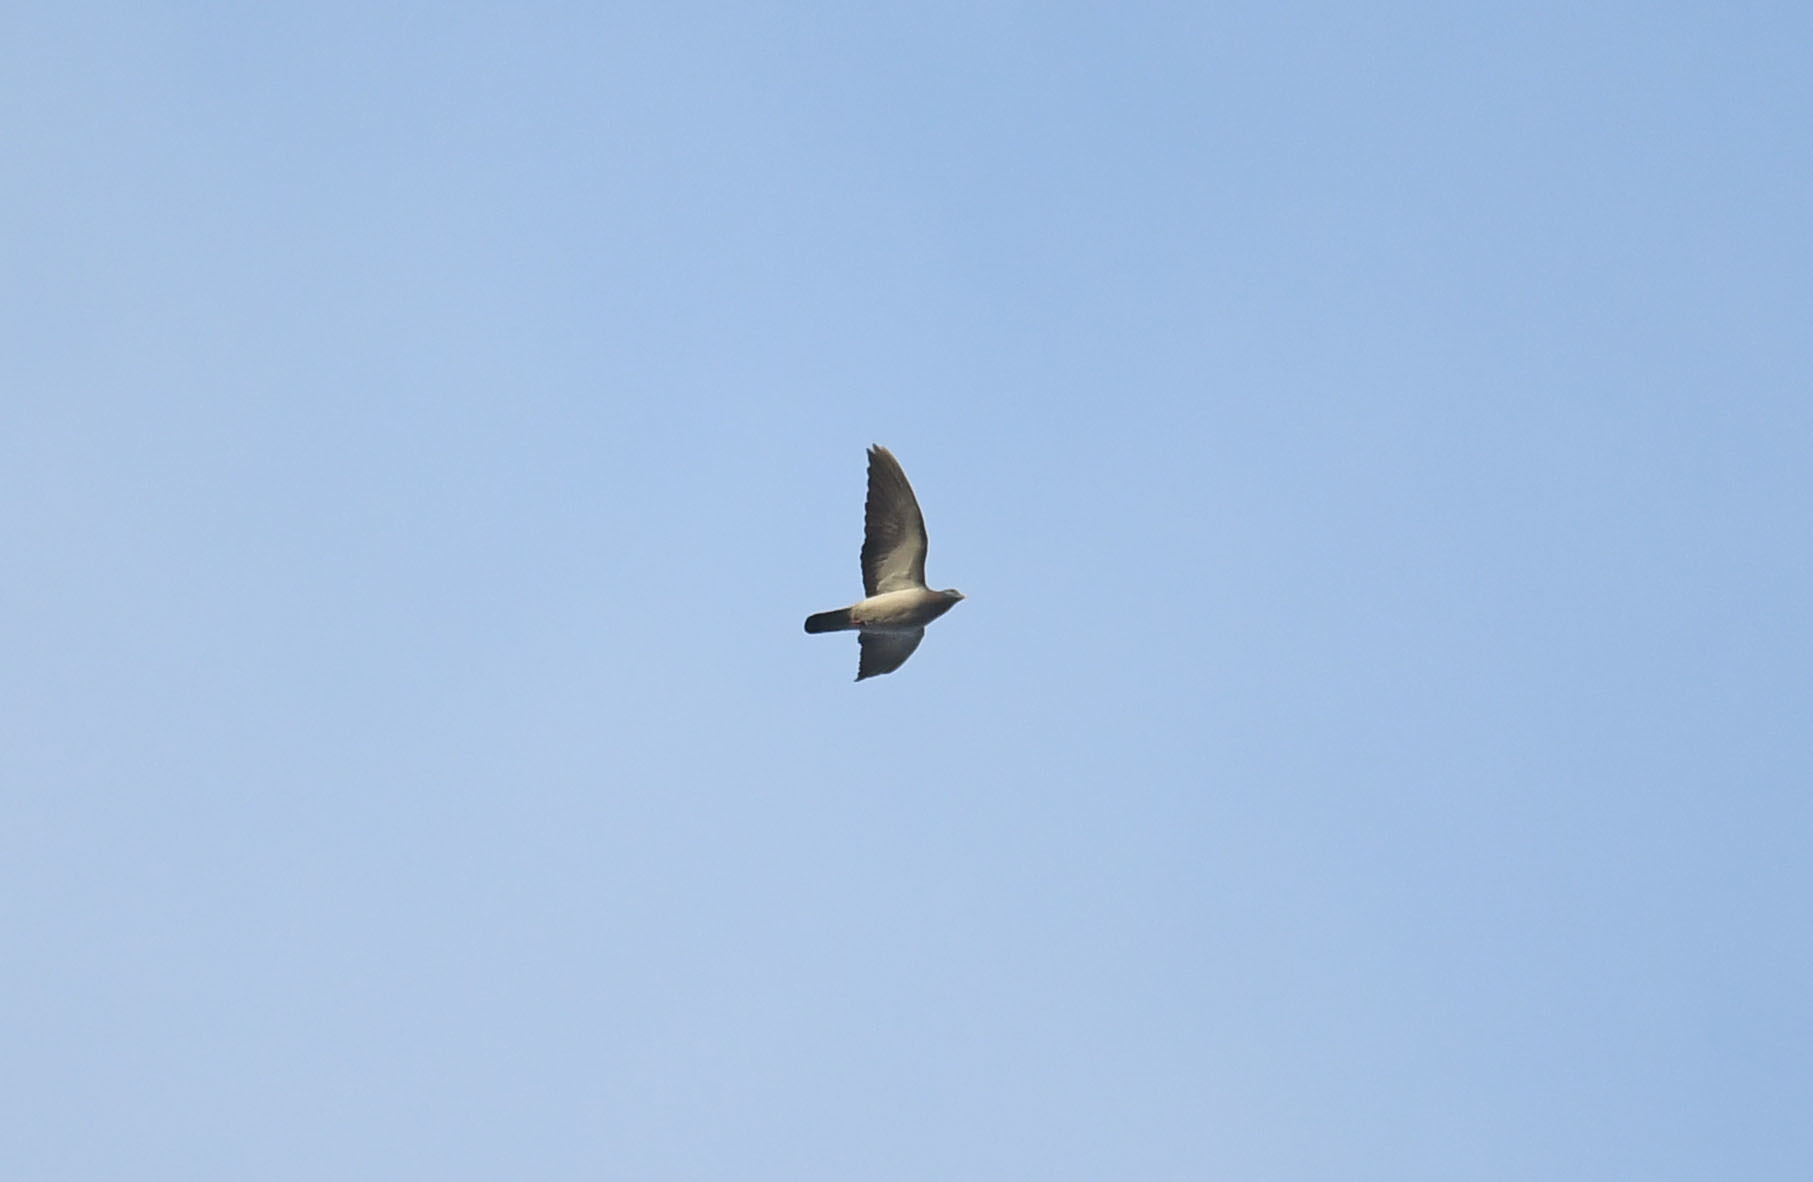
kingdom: Animalia
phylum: Chordata
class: Aves
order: Columbiformes
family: Columbidae
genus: Columba
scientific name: Columba oenas
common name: Stock dove
